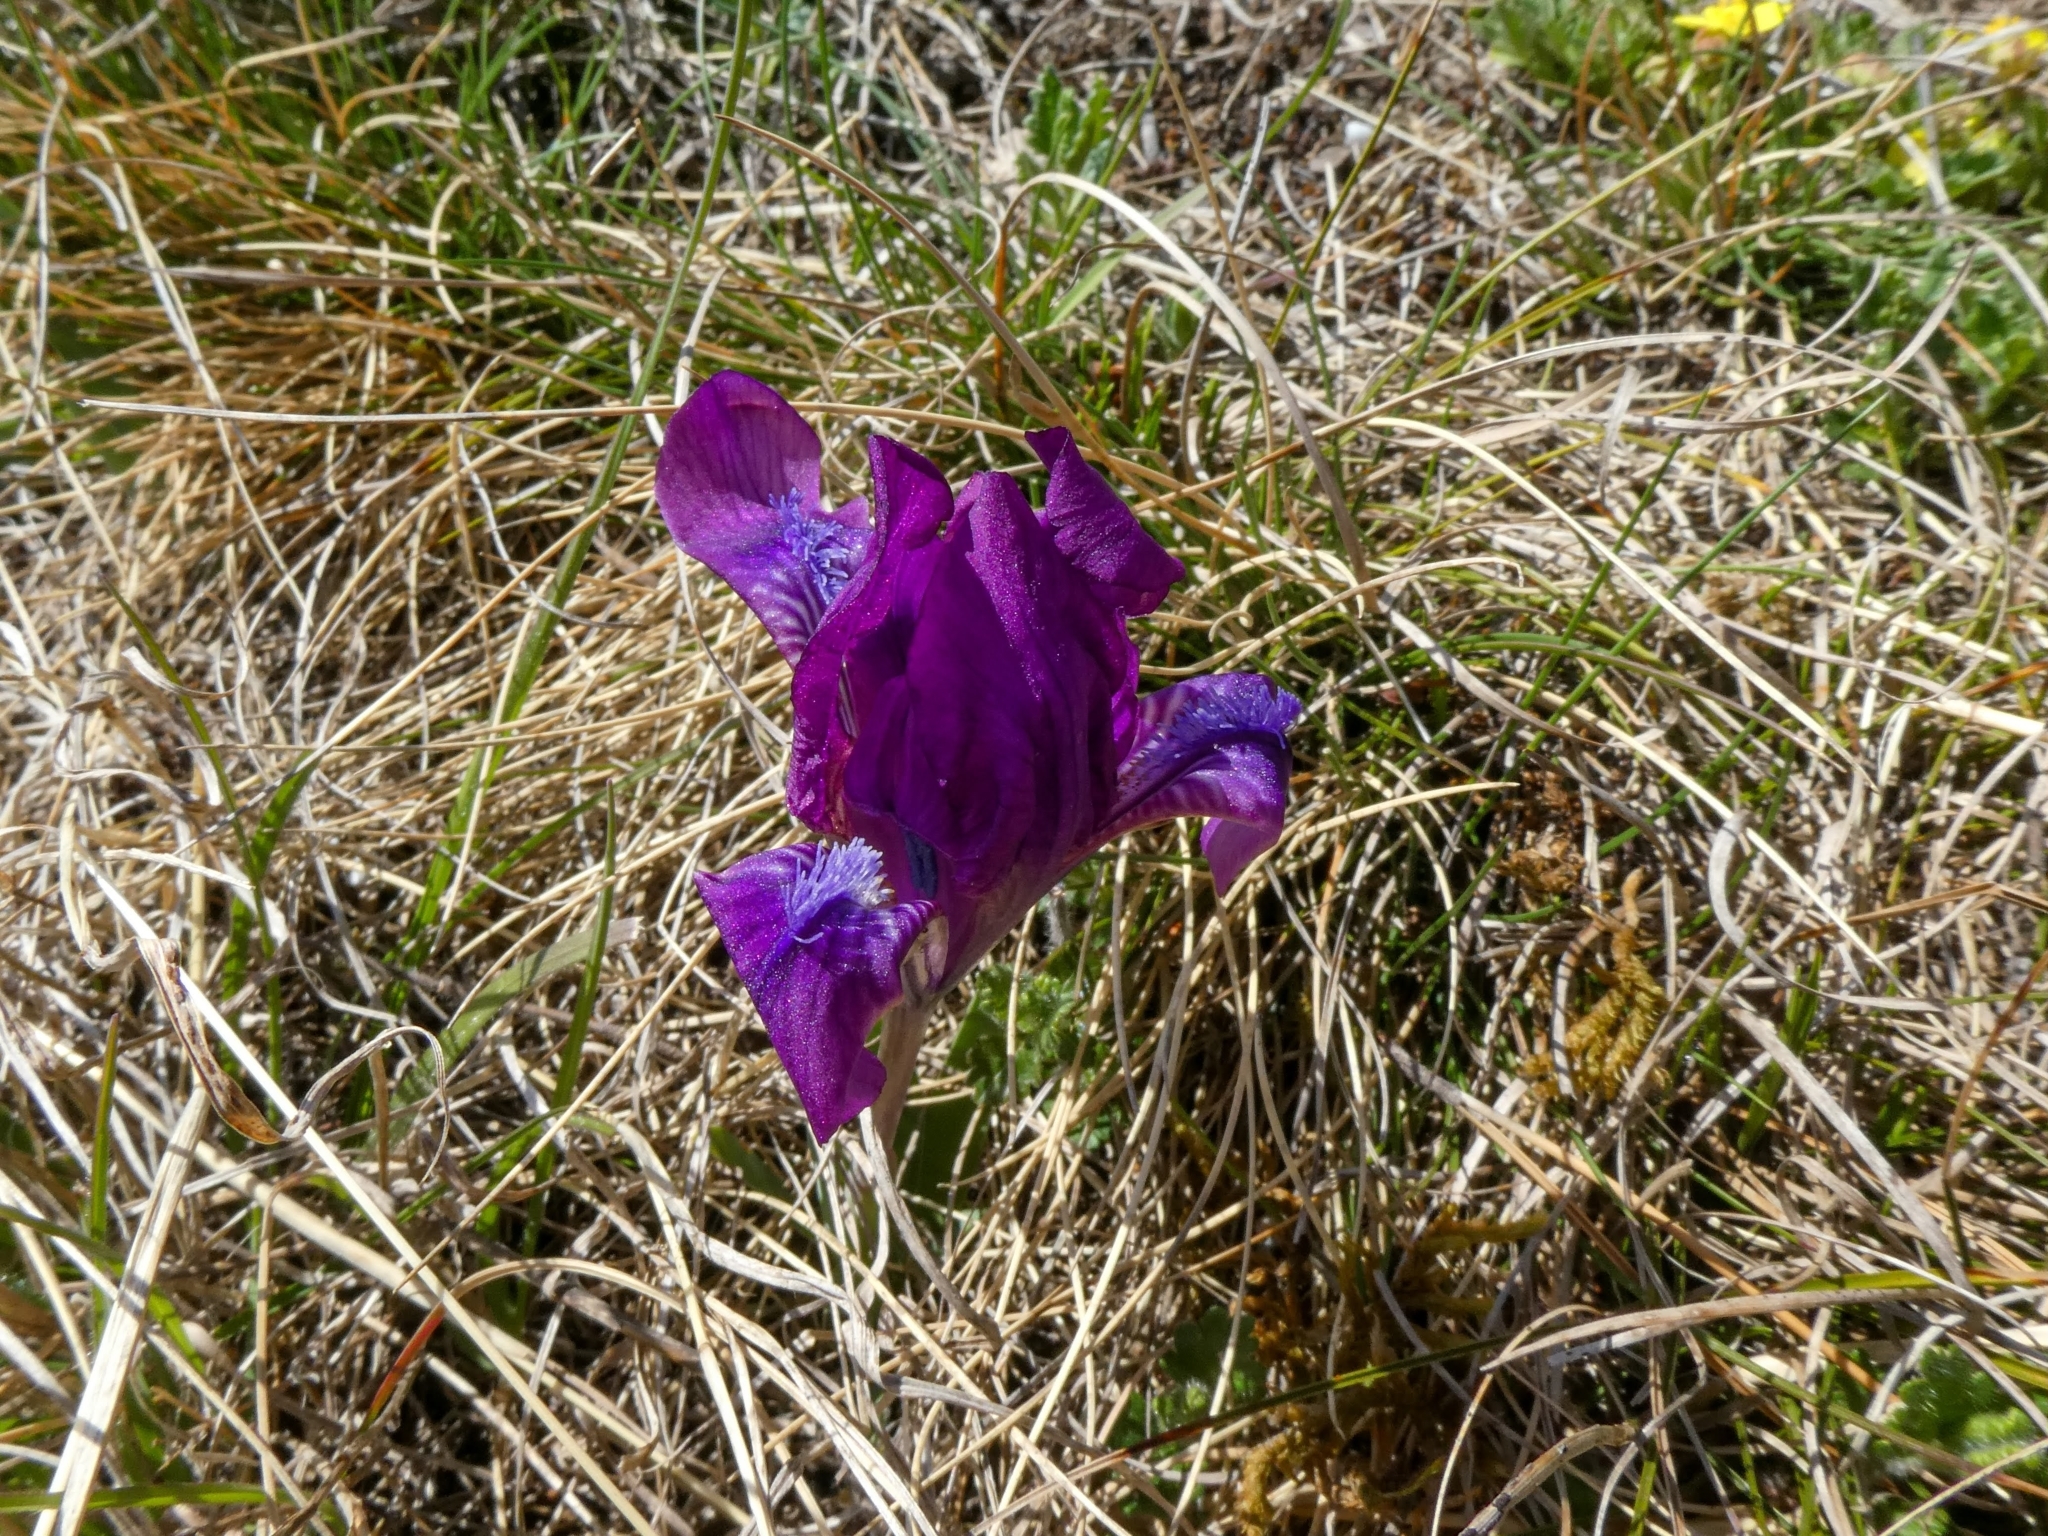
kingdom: Plantae
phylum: Tracheophyta
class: Liliopsida
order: Asparagales
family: Iridaceae
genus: Iris
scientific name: Iris pumila
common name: Dwarf iris
